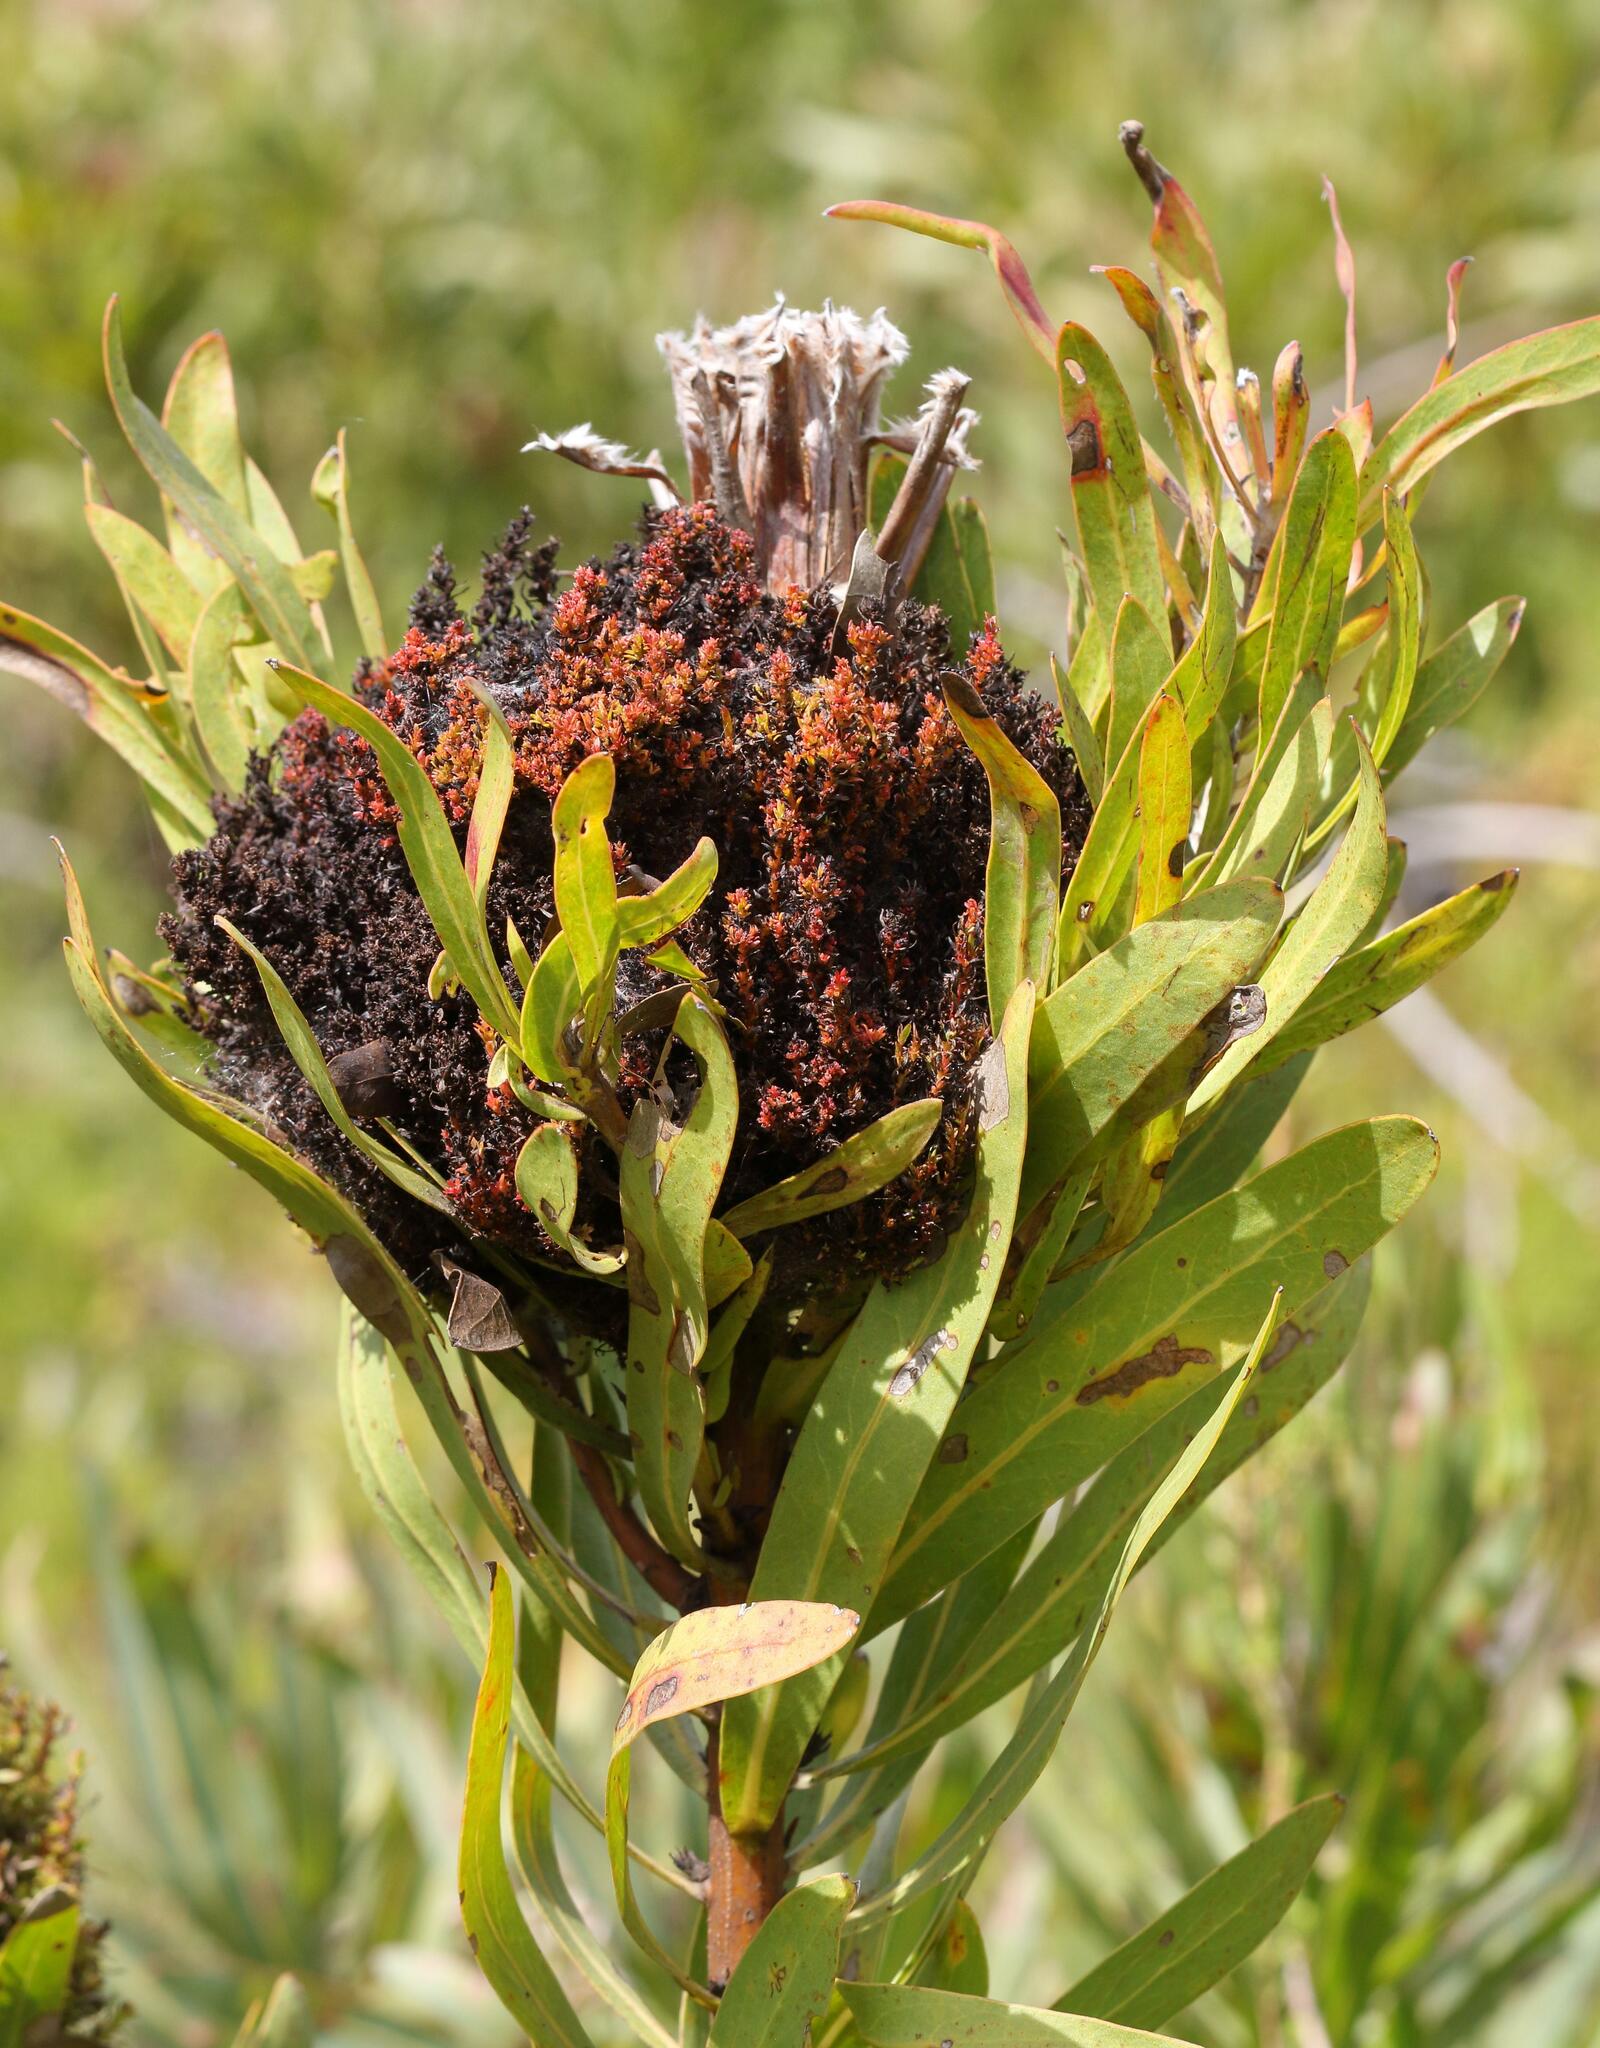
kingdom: Bacteria
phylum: Firmicutes
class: Bacilli
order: Acholeplasmatales
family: Acholeplasmataceae
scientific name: Acholeplasmataceae
